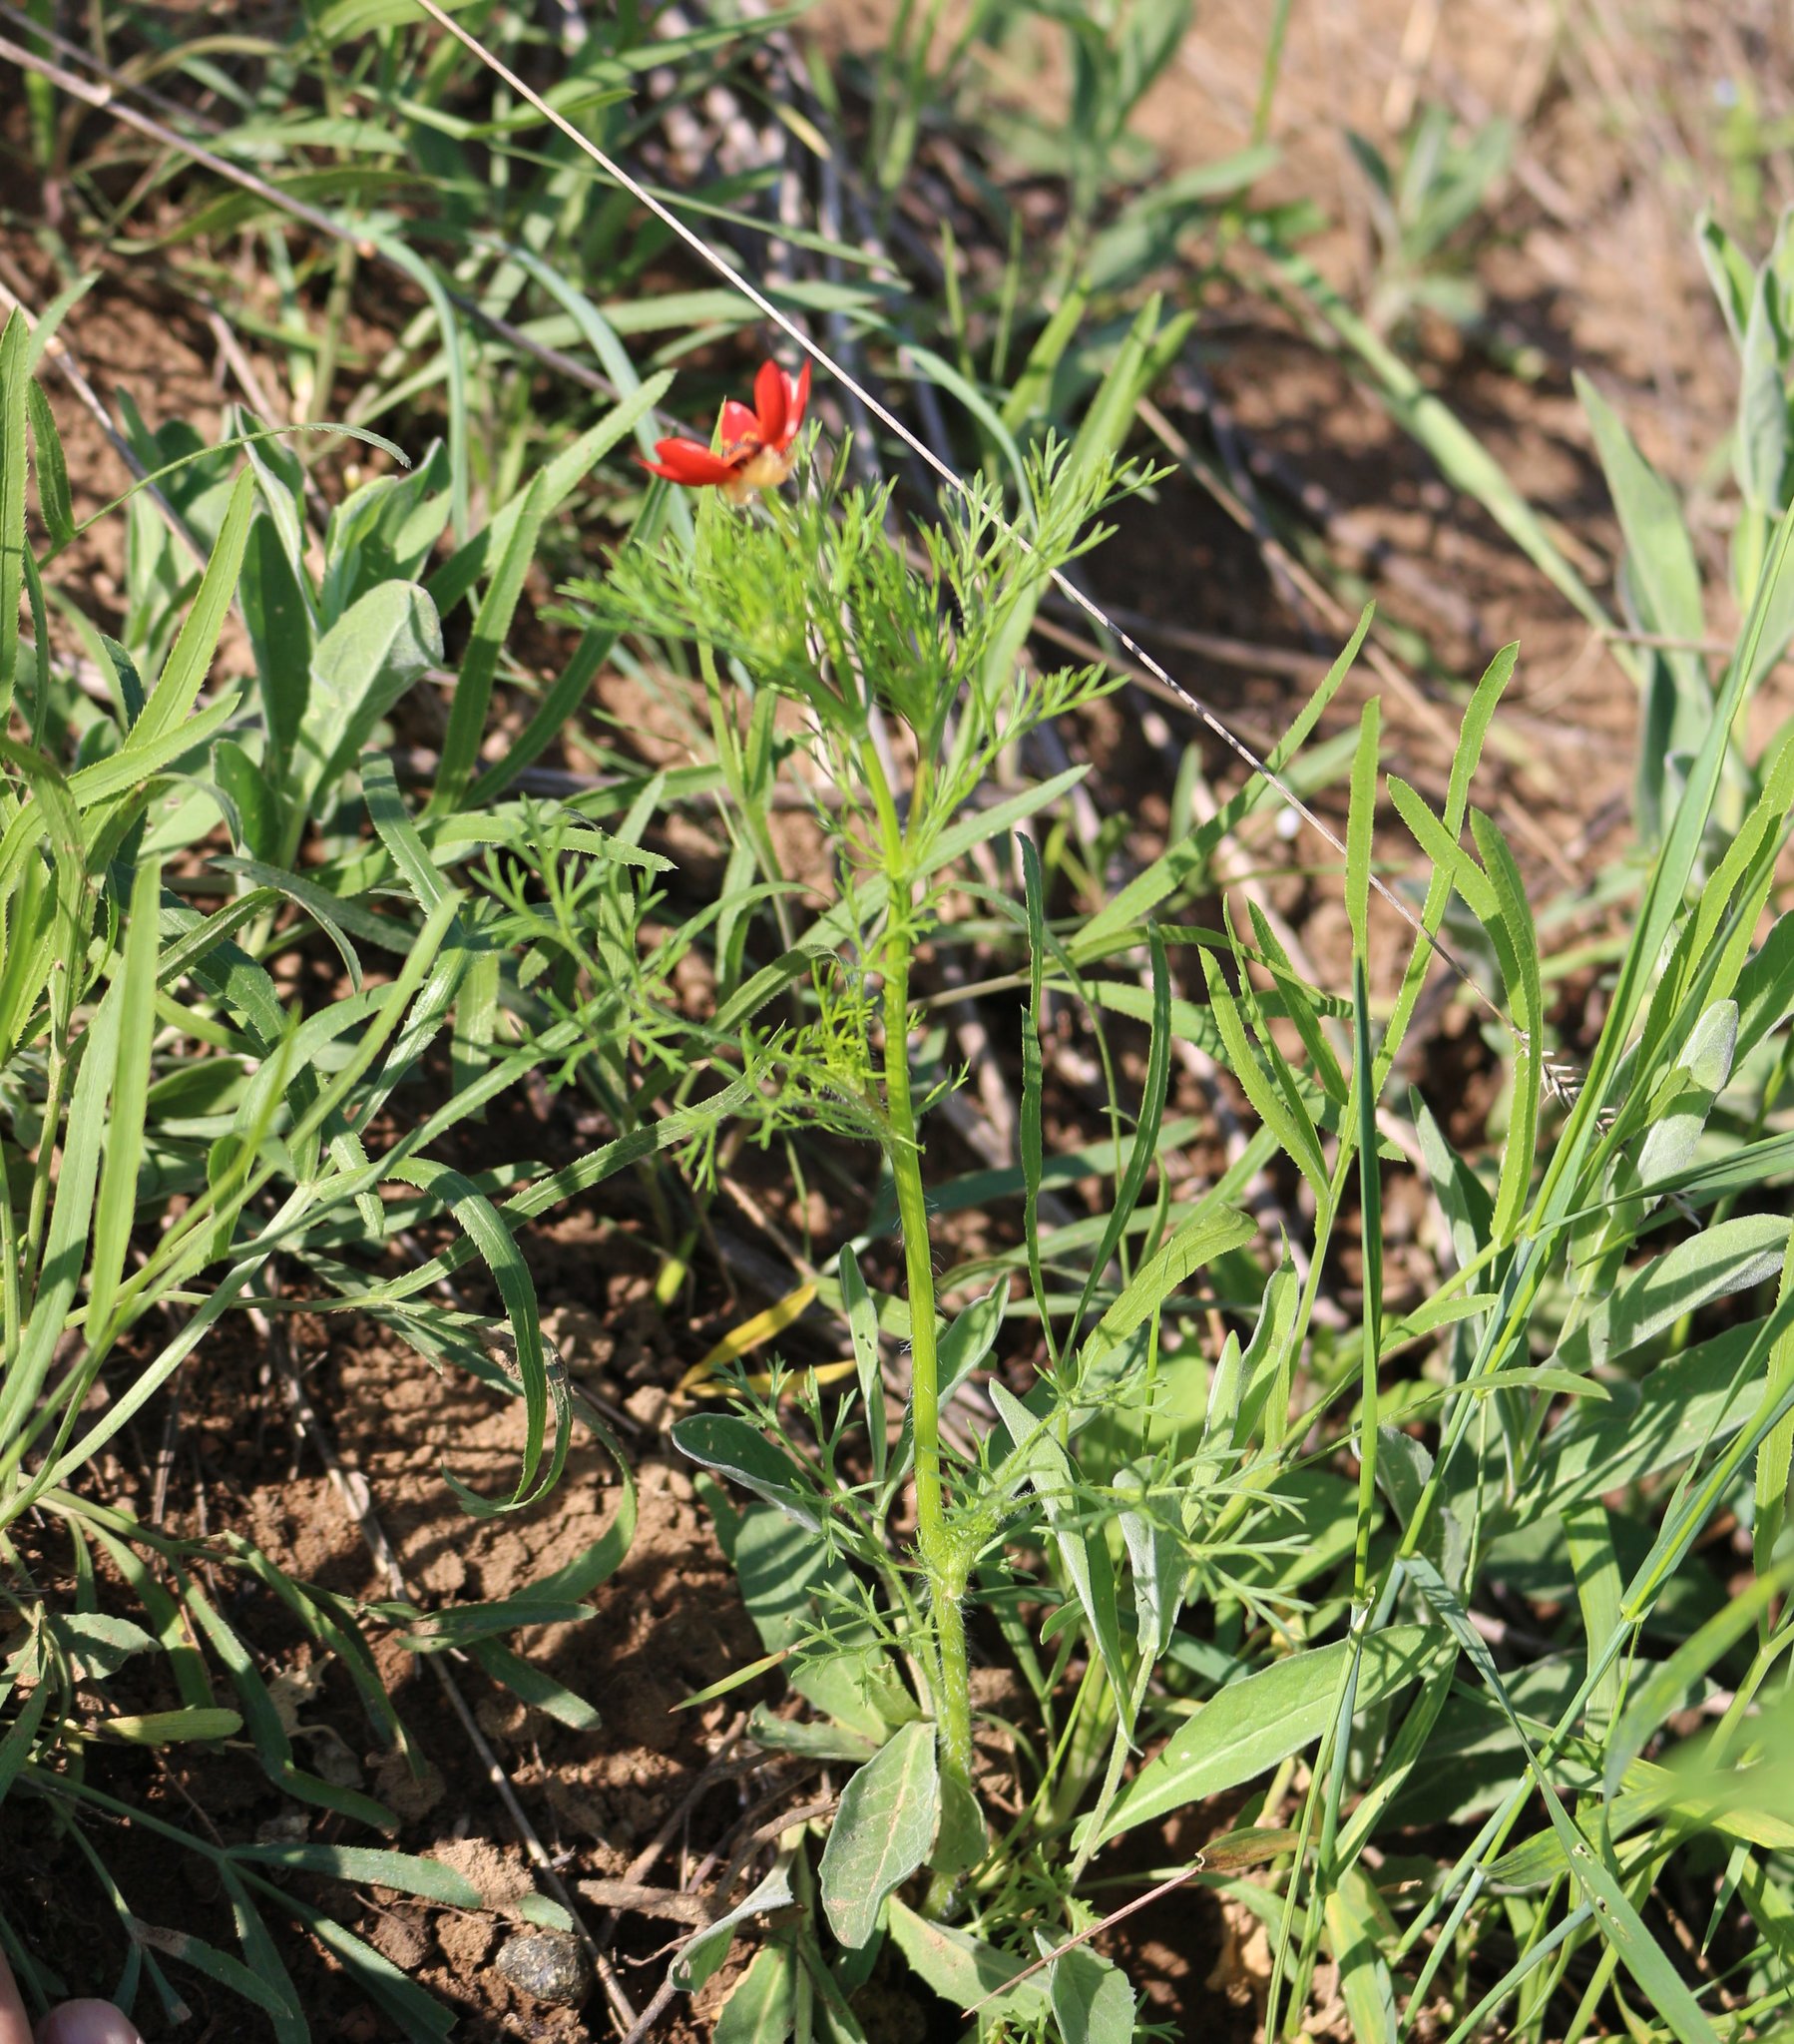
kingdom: Plantae
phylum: Tracheophyta
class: Magnoliopsida
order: Ranunculales
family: Ranunculaceae
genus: Adonis
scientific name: Adonis aestivalis
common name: Summer pheasant's-eye
